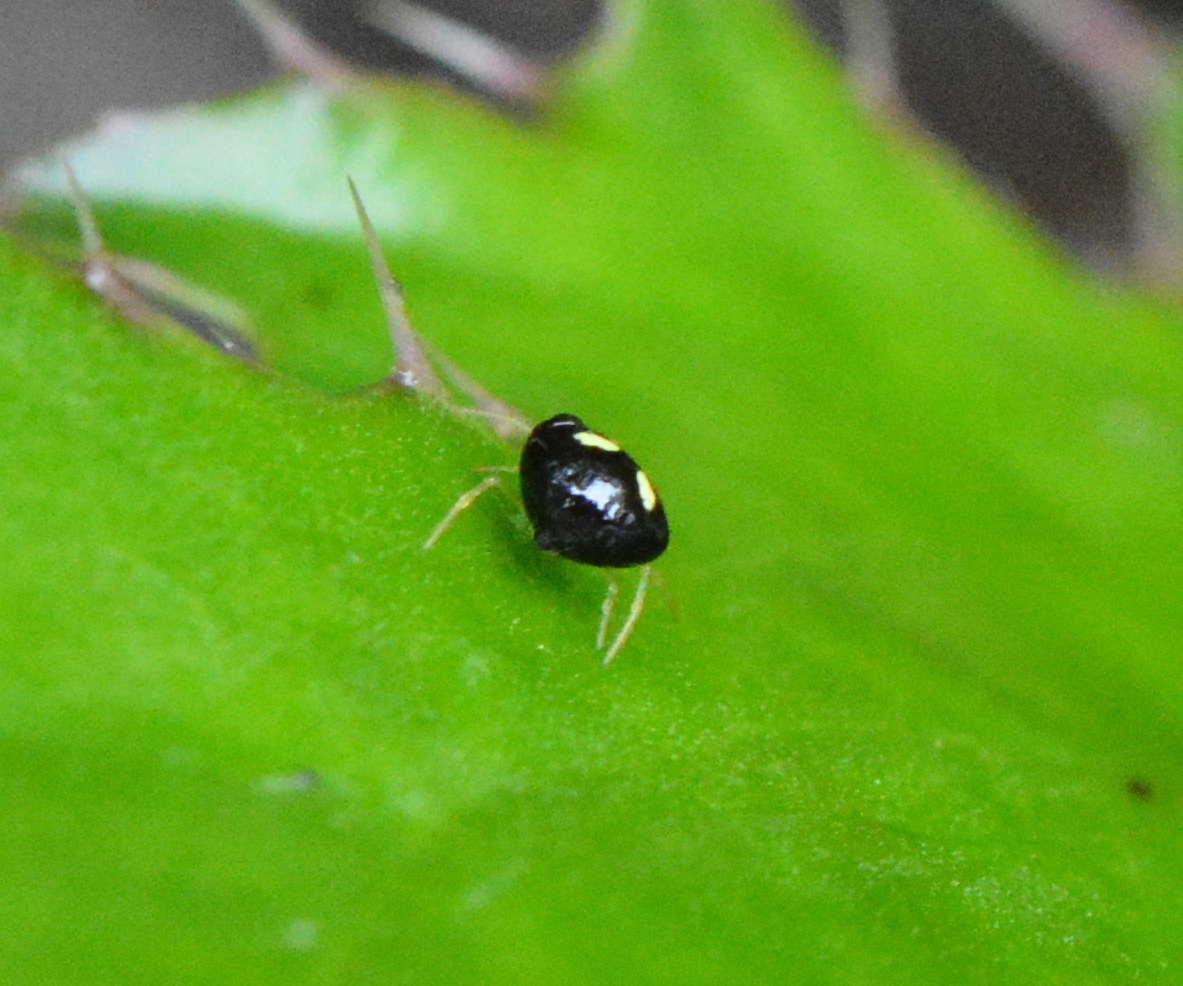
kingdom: Animalia
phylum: Arthropoda
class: Arachnida
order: Araneae
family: Theridiidae
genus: Theridula
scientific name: Theridula gonygaster
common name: Cobweb spiders
